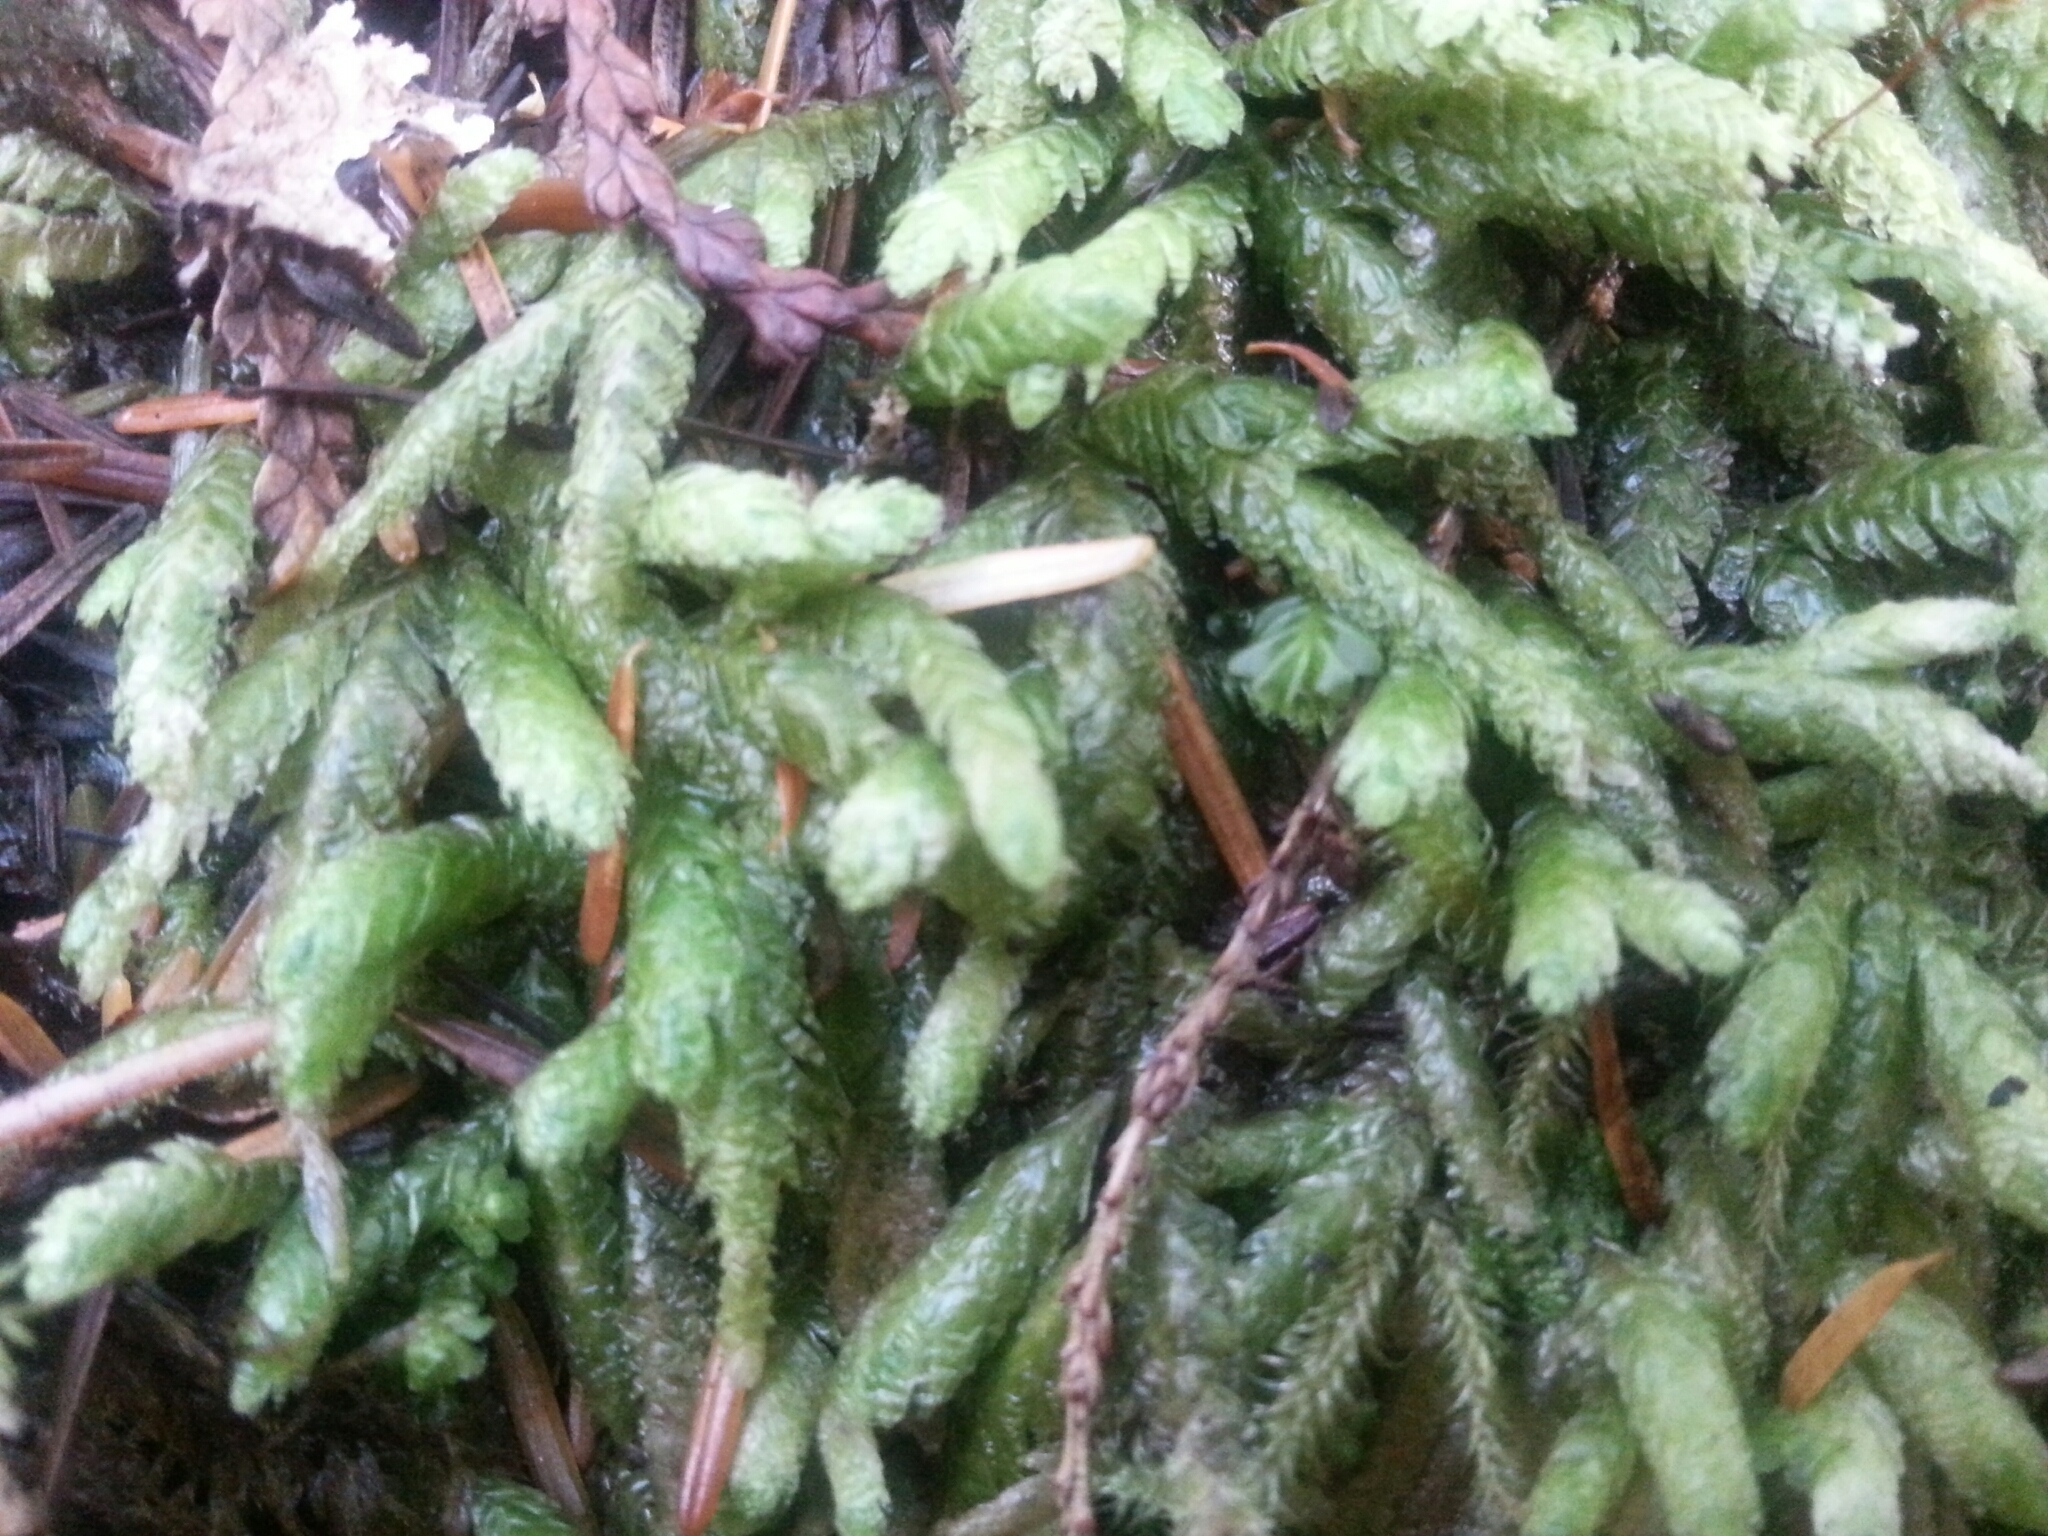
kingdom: Plantae
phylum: Bryophyta
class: Bryopsida
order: Hypnales
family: Plagiotheciaceae
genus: Plagiothecium
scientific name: Plagiothecium undulatum
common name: Waved silk-moss
